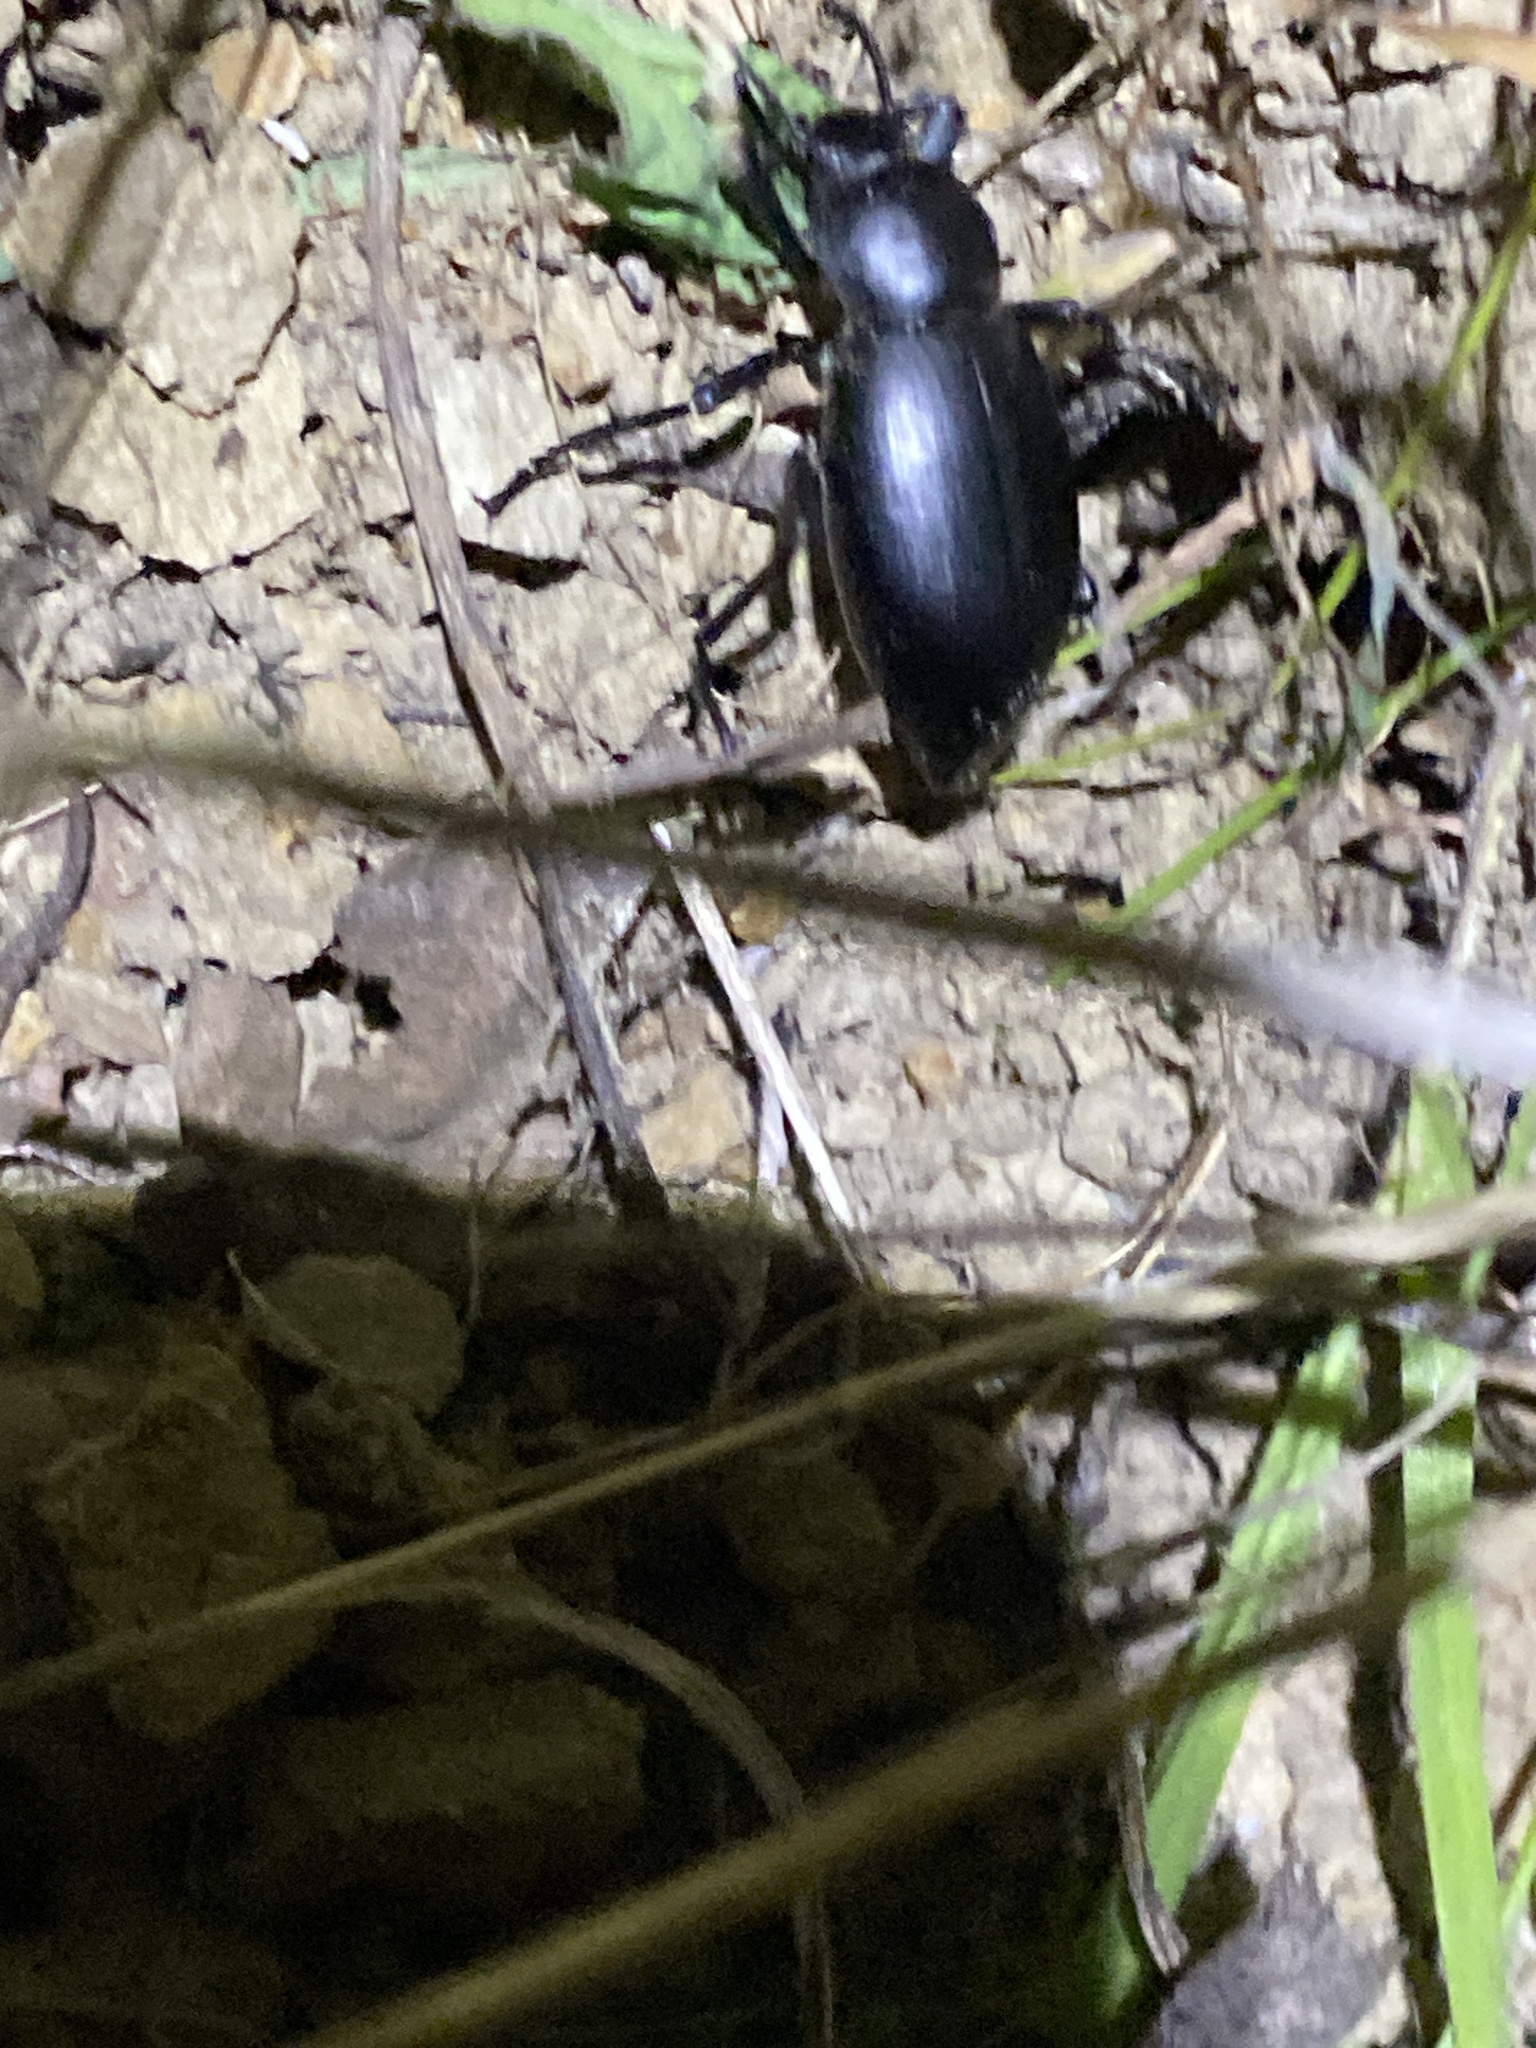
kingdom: Animalia
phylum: Arthropoda
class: Insecta
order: Coleoptera
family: Tenebrionidae
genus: Eleodes
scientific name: Eleodes dentipes
